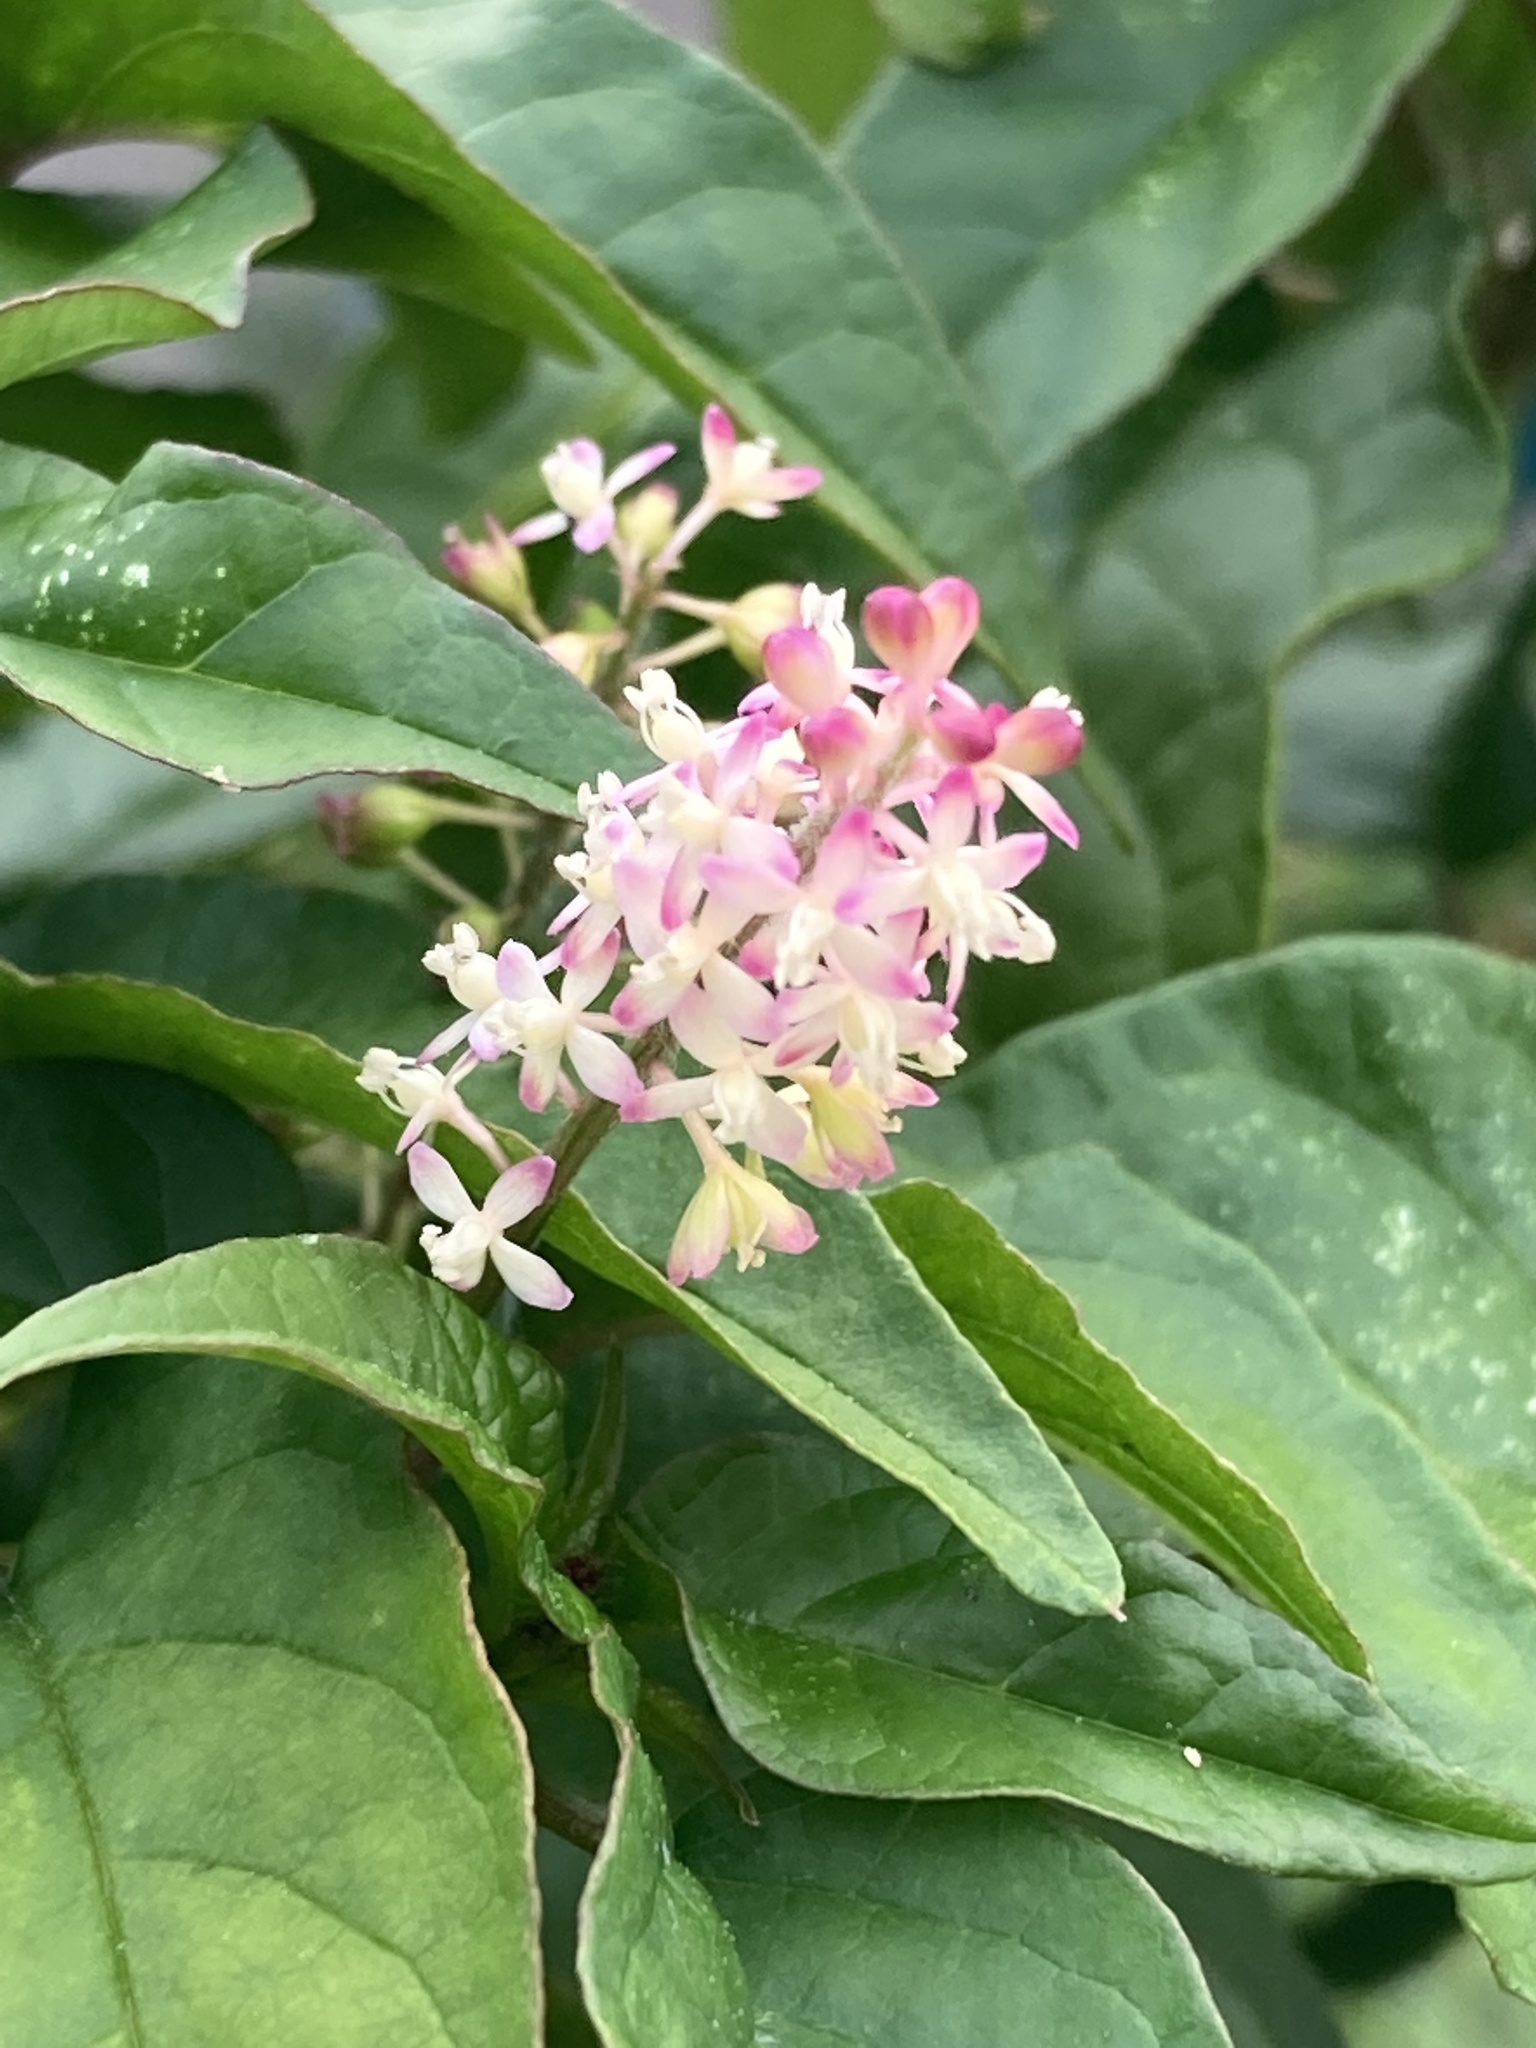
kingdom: Plantae
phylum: Tracheophyta
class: Magnoliopsida
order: Caryophyllales
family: Phytolaccaceae
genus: Rivina
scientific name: Rivina humilis
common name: Rougeplant
